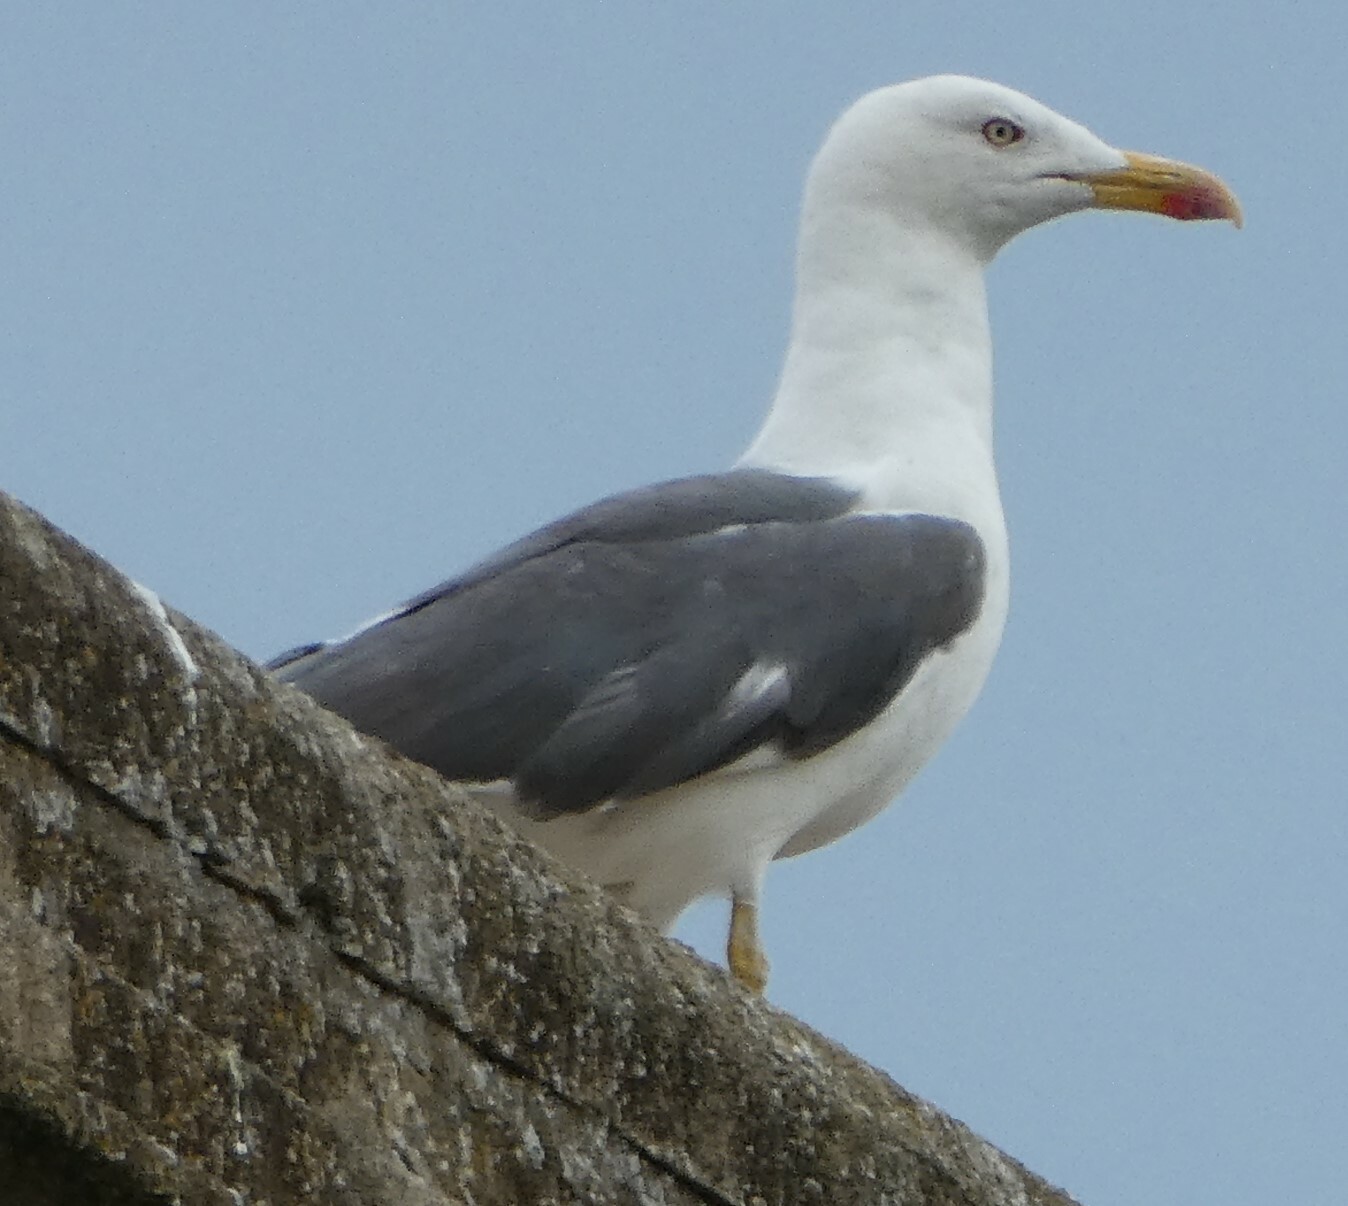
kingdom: Animalia
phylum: Chordata
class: Aves
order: Charadriiformes
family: Laridae
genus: Larus
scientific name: Larus fuscus
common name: Lesser black-backed gull
